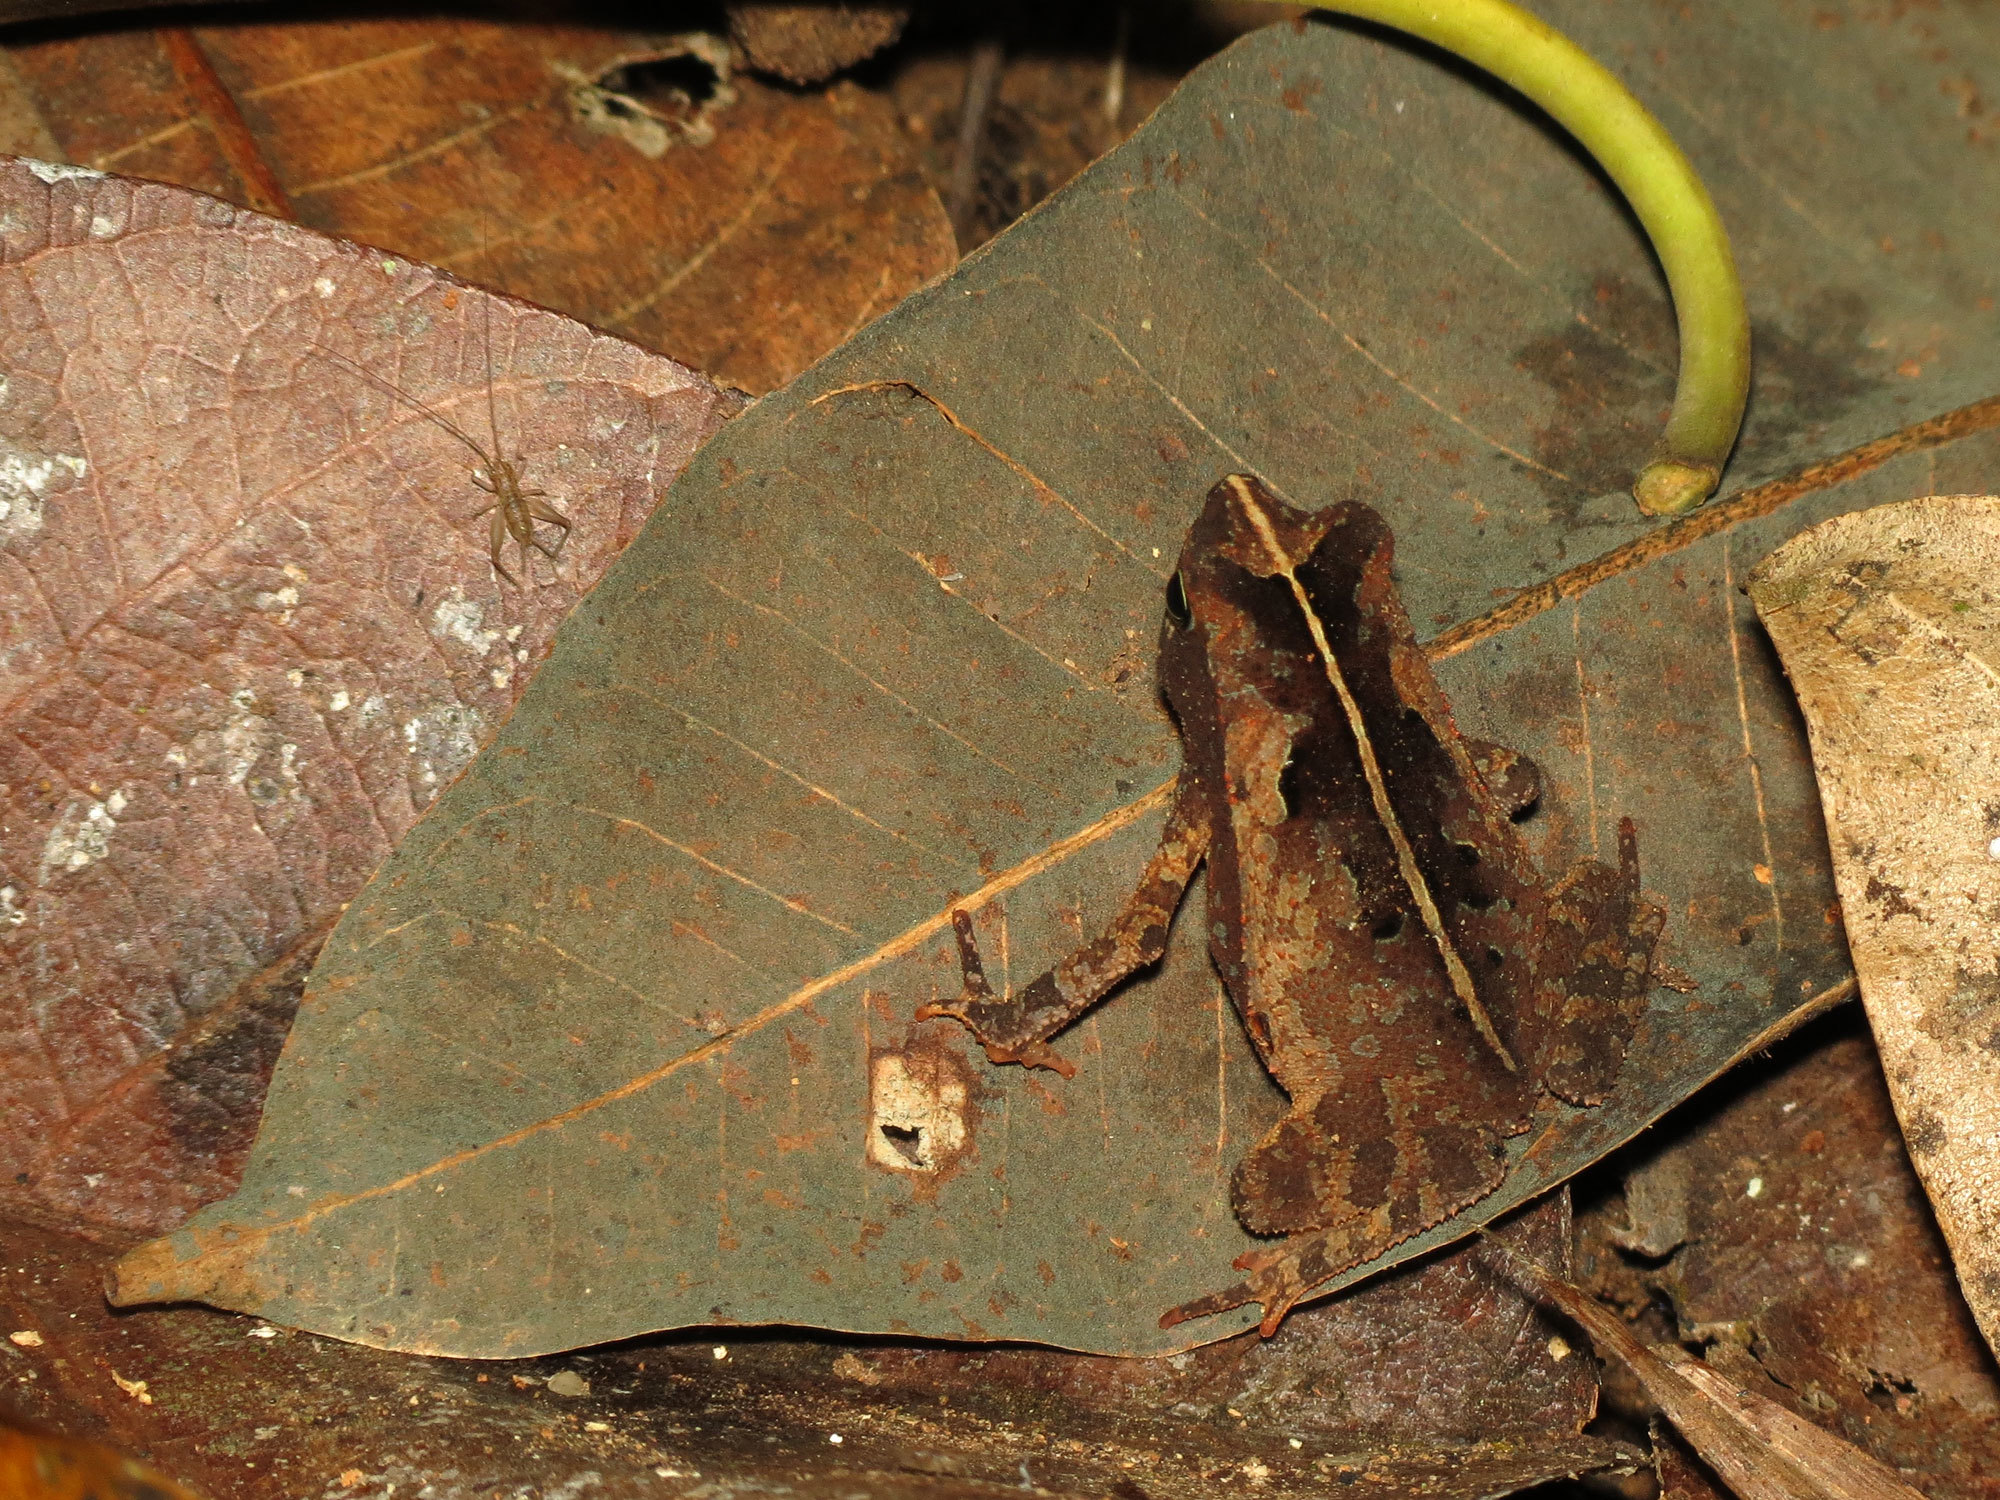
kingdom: Animalia
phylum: Chordata
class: Amphibia
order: Anura
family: Bufonidae
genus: Rhinella
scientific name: Rhinella alata
